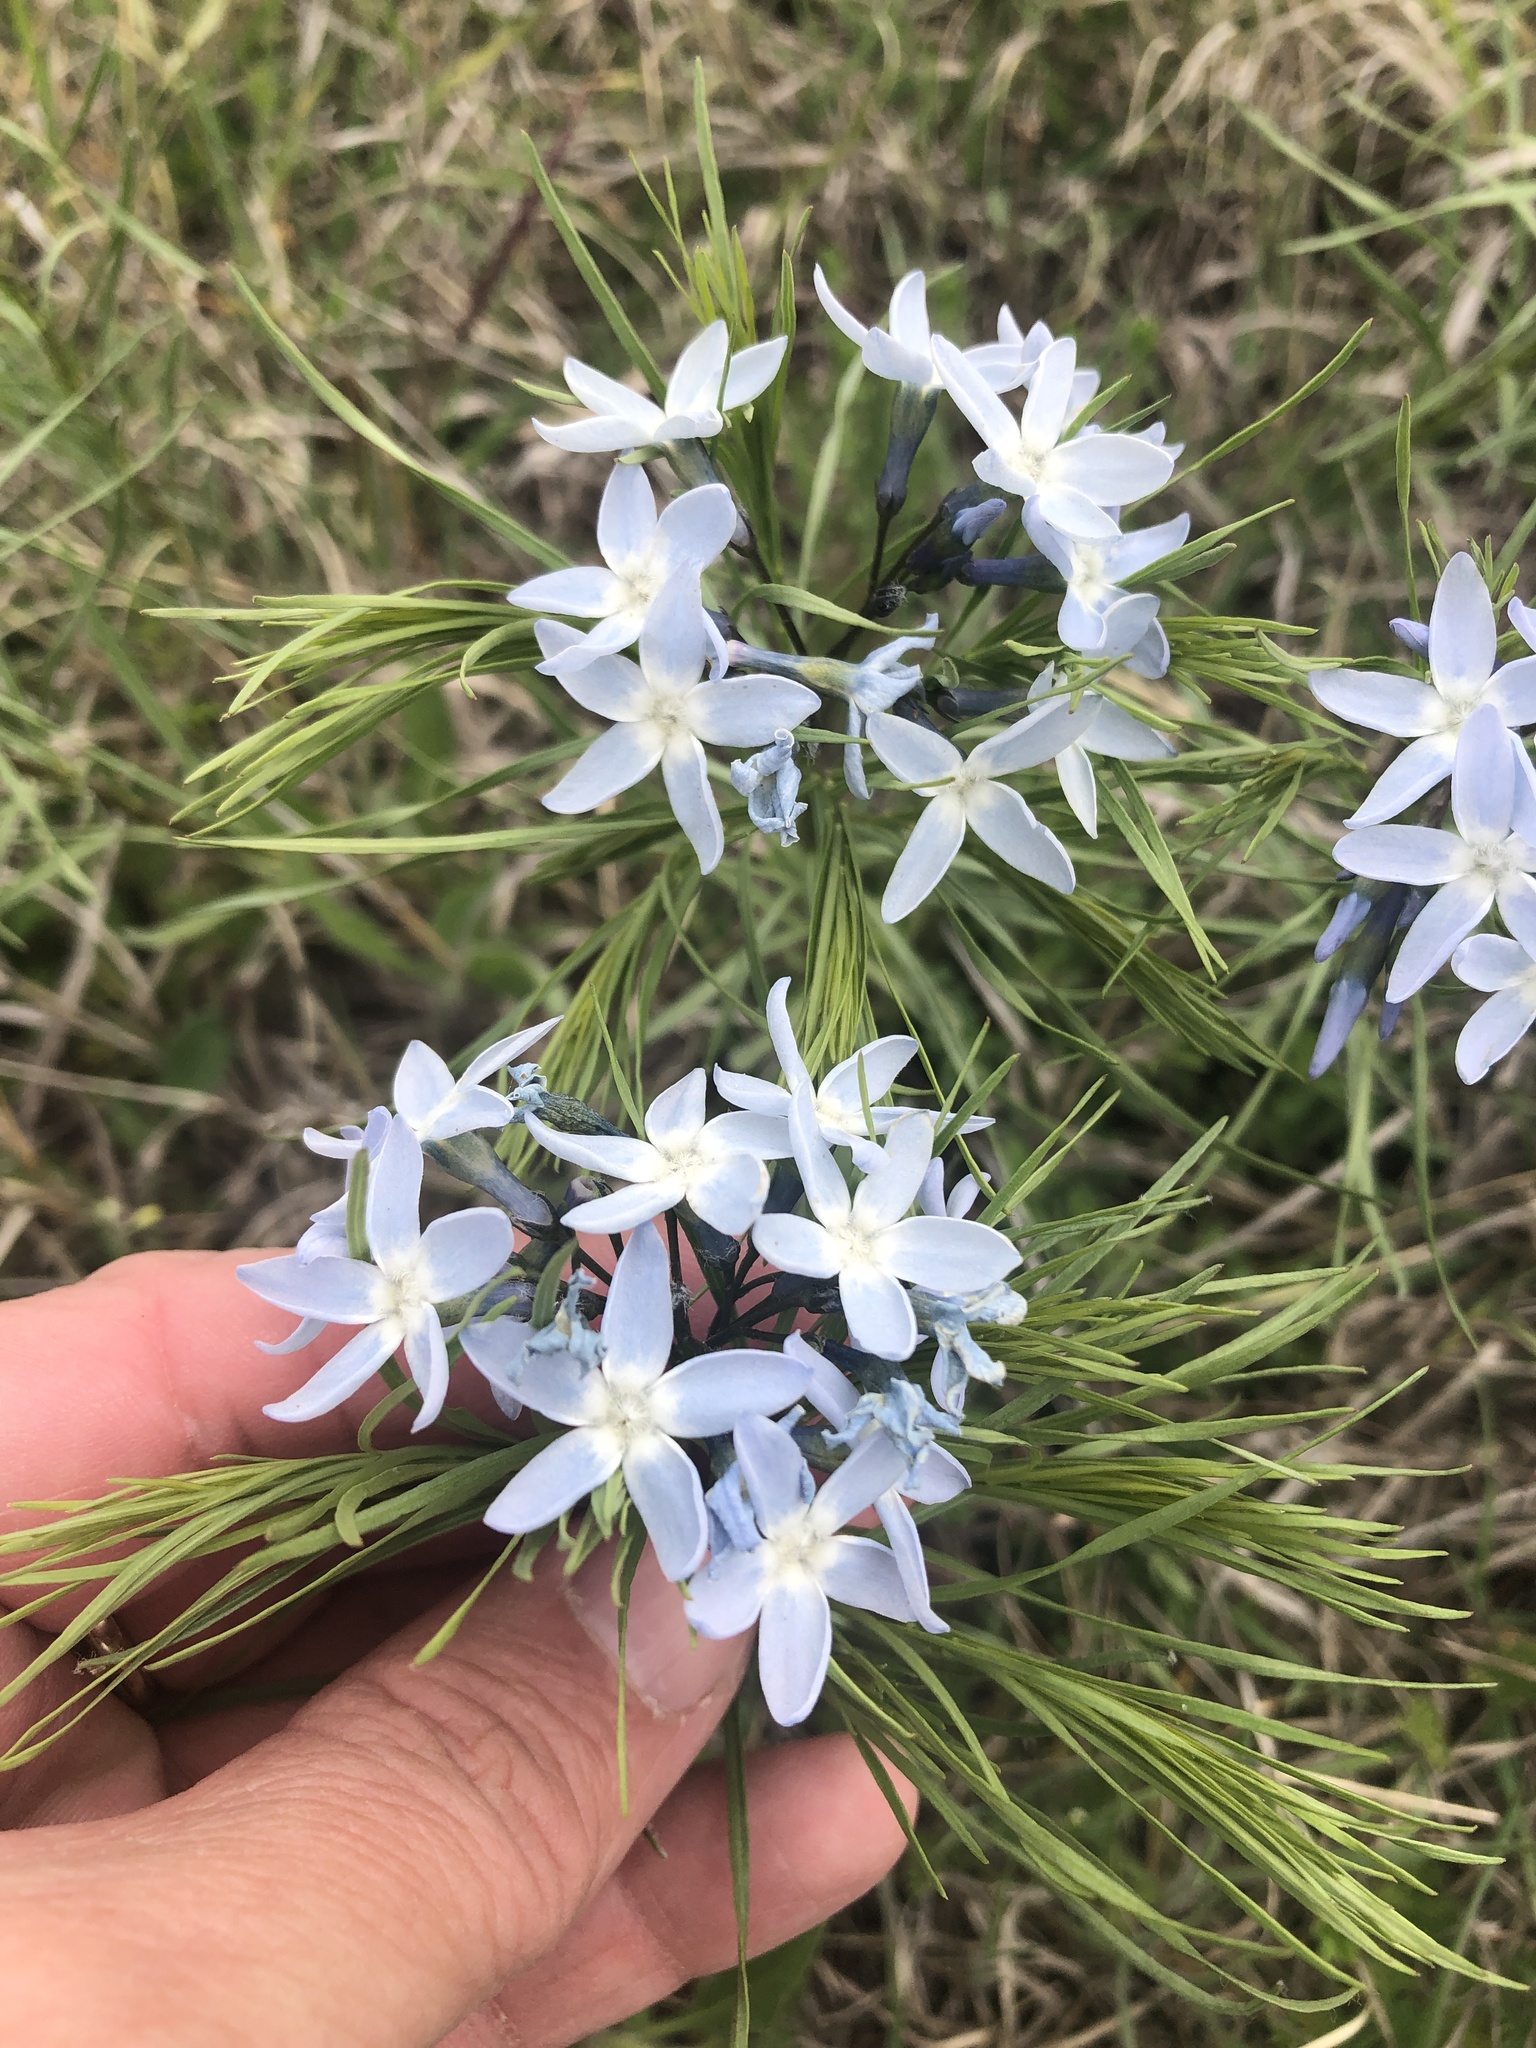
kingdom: Plantae
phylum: Tracheophyta
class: Magnoliopsida
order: Gentianales
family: Apocynaceae
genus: Amsonia
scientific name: Amsonia ciliata
